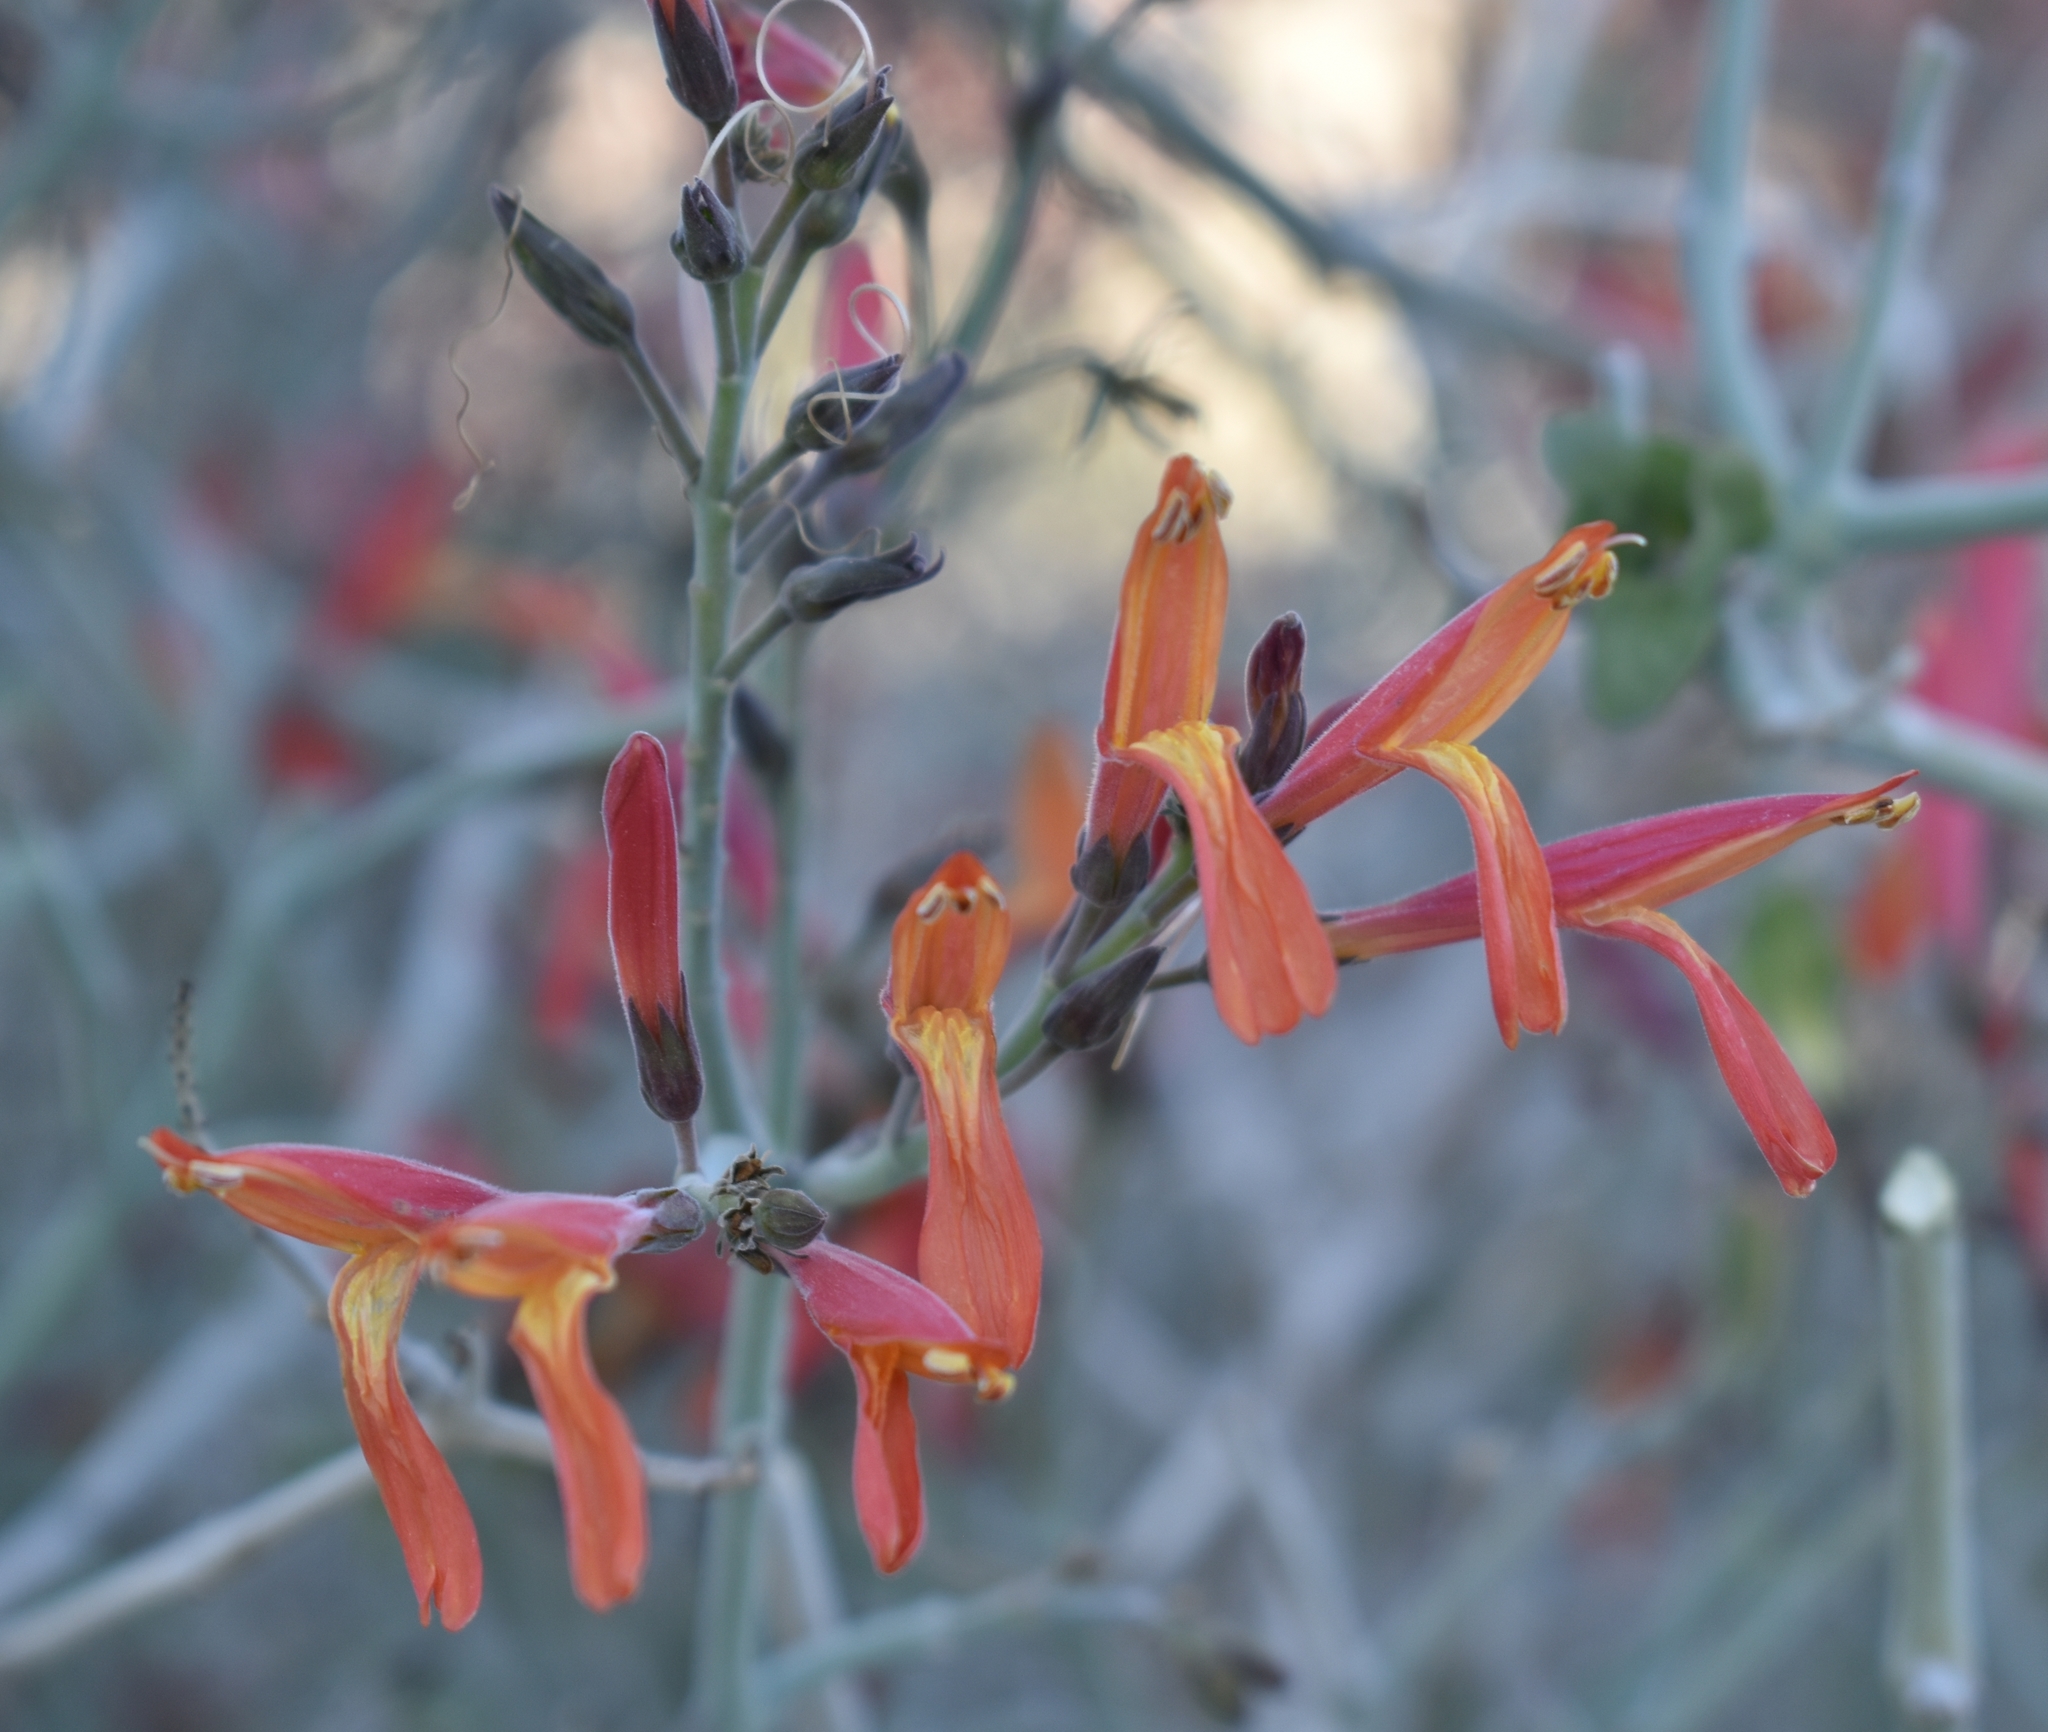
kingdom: Plantae
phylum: Tracheophyta
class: Magnoliopsida
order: Lamiales
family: Acanthaceae
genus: Justicia
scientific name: Justicia californica
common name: Chuparosa-honeysuckle
